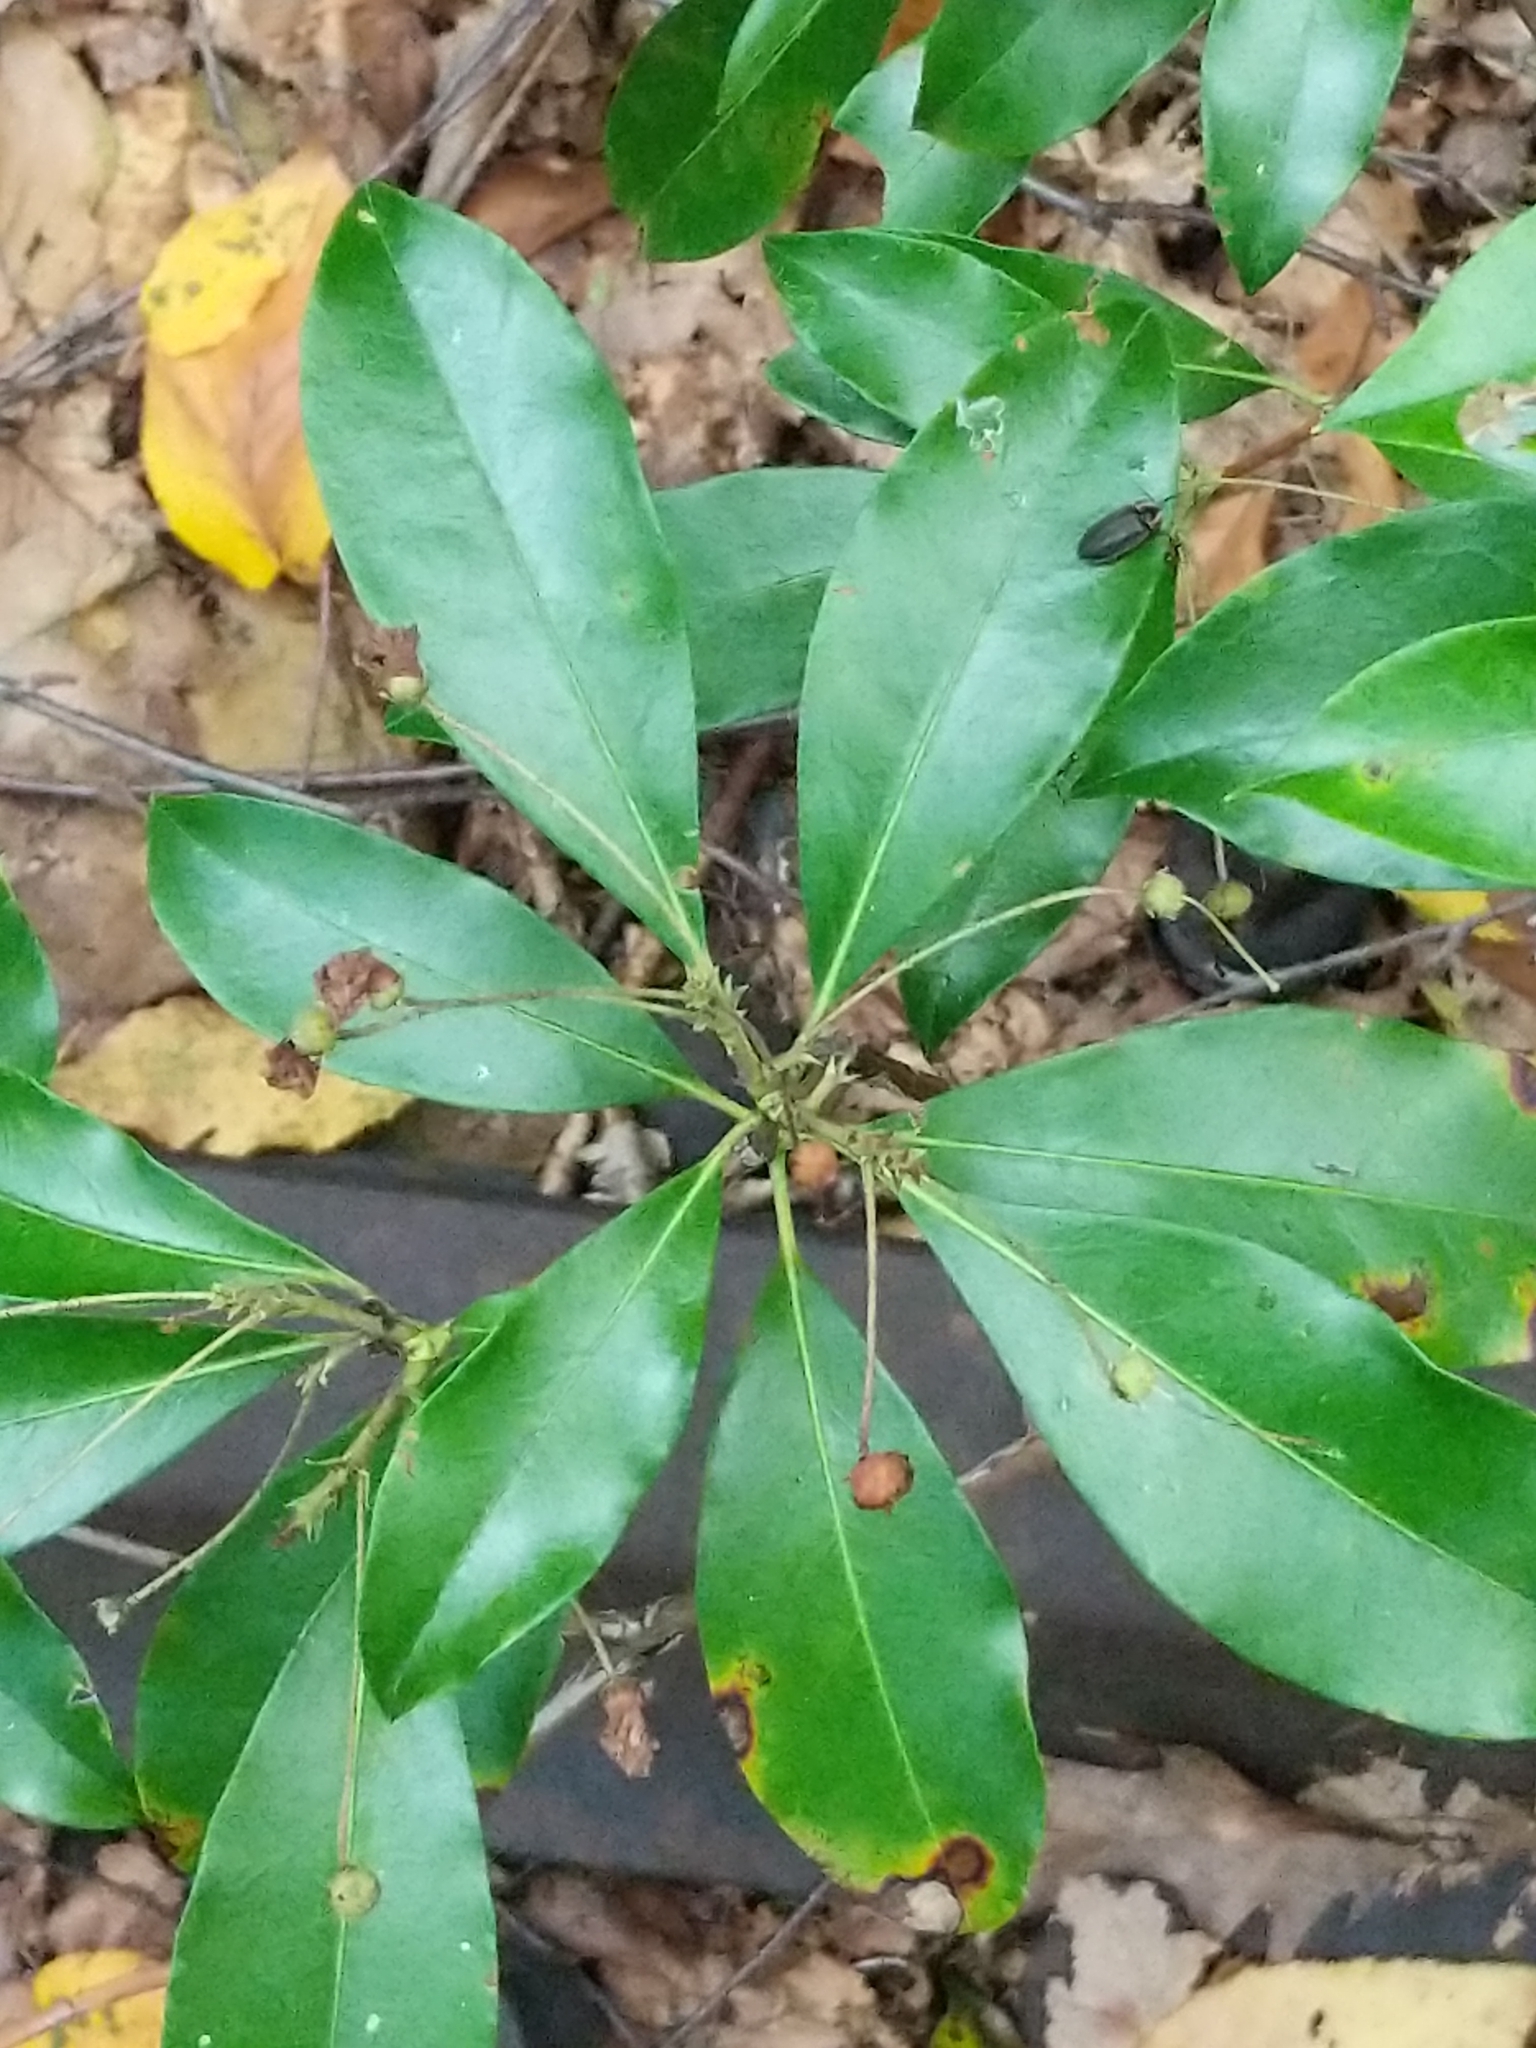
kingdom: Plantae
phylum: Tracheophyta
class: Magnoliopsida
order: Ericales
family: Ericaceae
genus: Kalmia
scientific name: Kalmia latifolia
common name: Mountain-laurel
